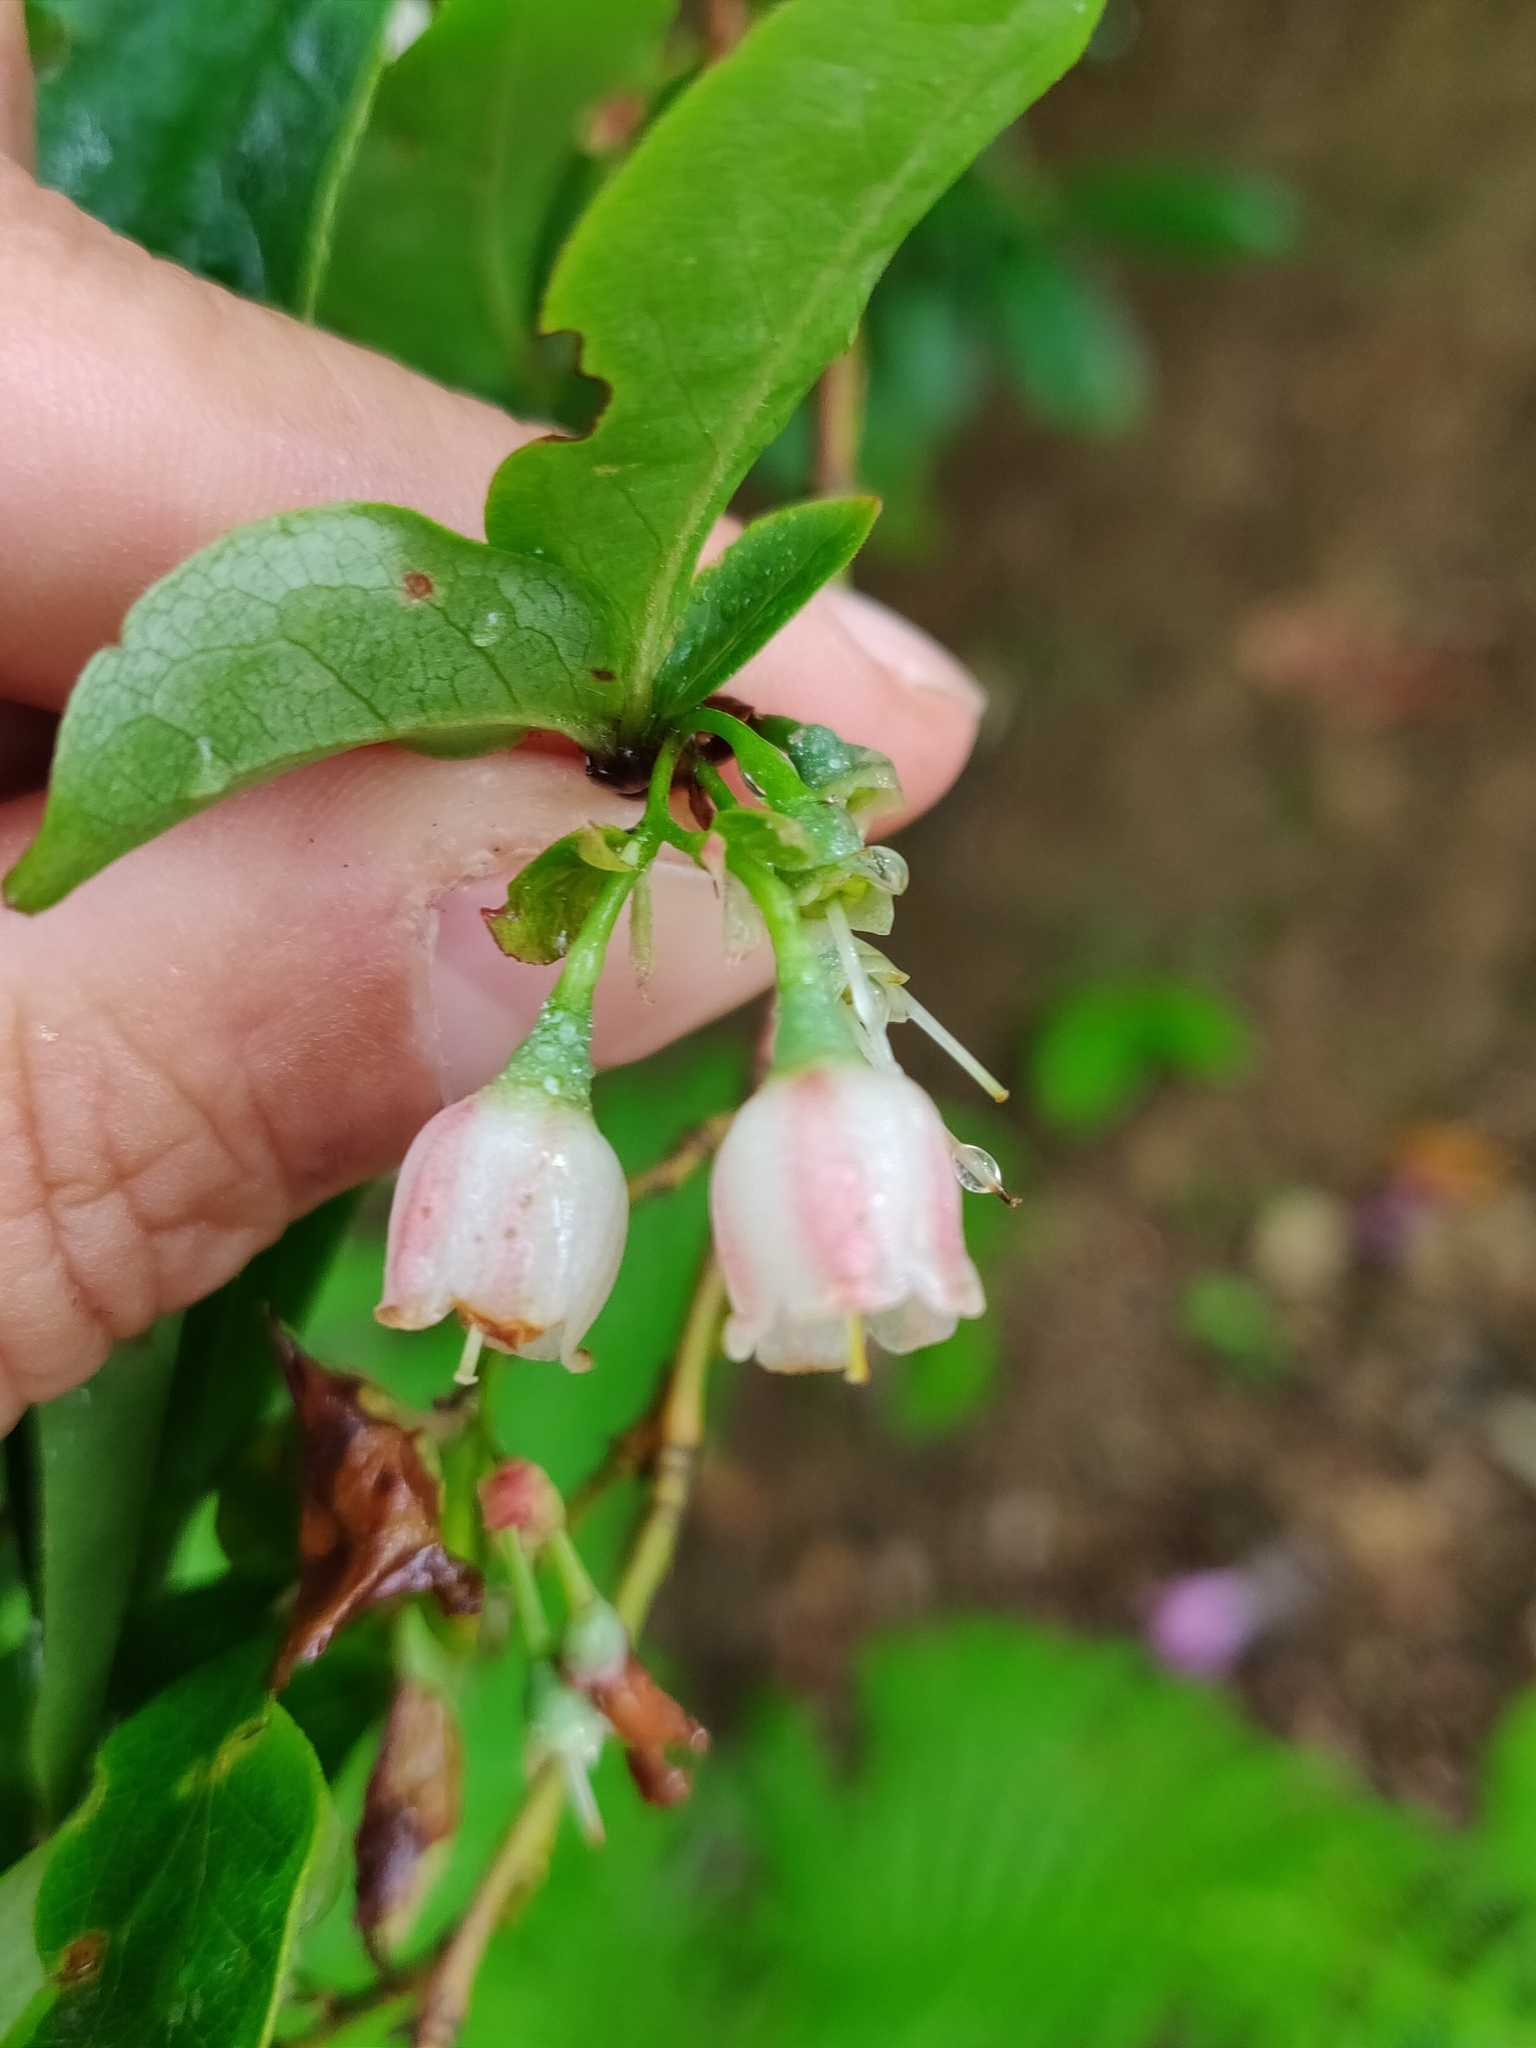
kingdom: Plantae
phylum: Tracheophyta
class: Magnoliopsida
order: Ericales
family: Ericaceae
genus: Vaccinium
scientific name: Vaccinium arctostaphylos
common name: Caucasian whortleberry
